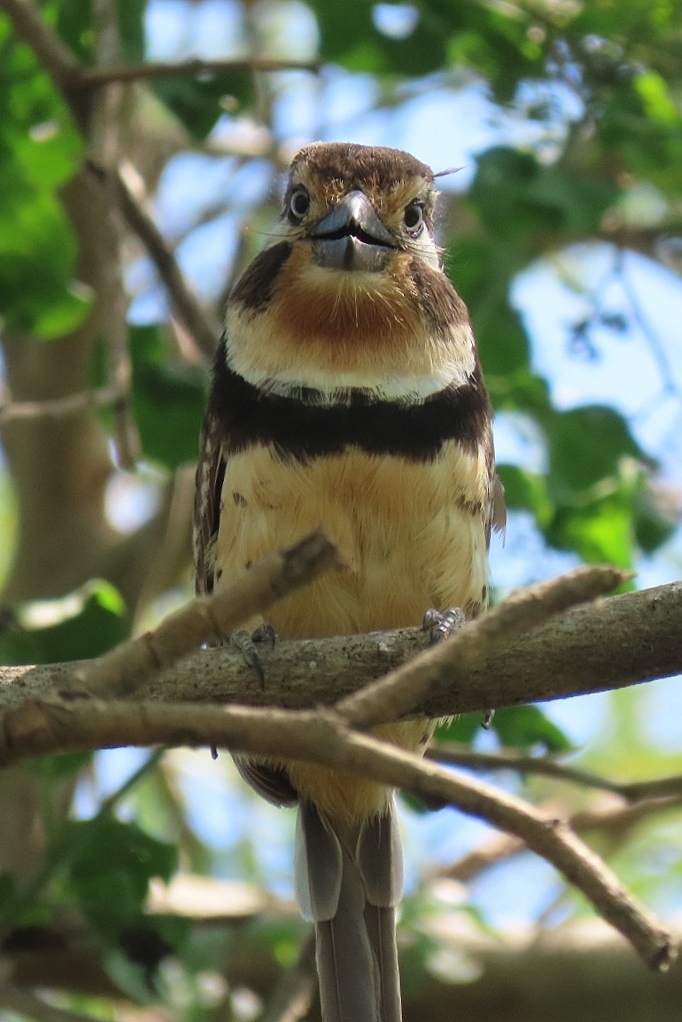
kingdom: Animalia
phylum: Chordata
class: Aves
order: Piciformes
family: Bucconidae
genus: Hypnelus
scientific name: Hypnelus ruficollis
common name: Russet-throated puffbird
